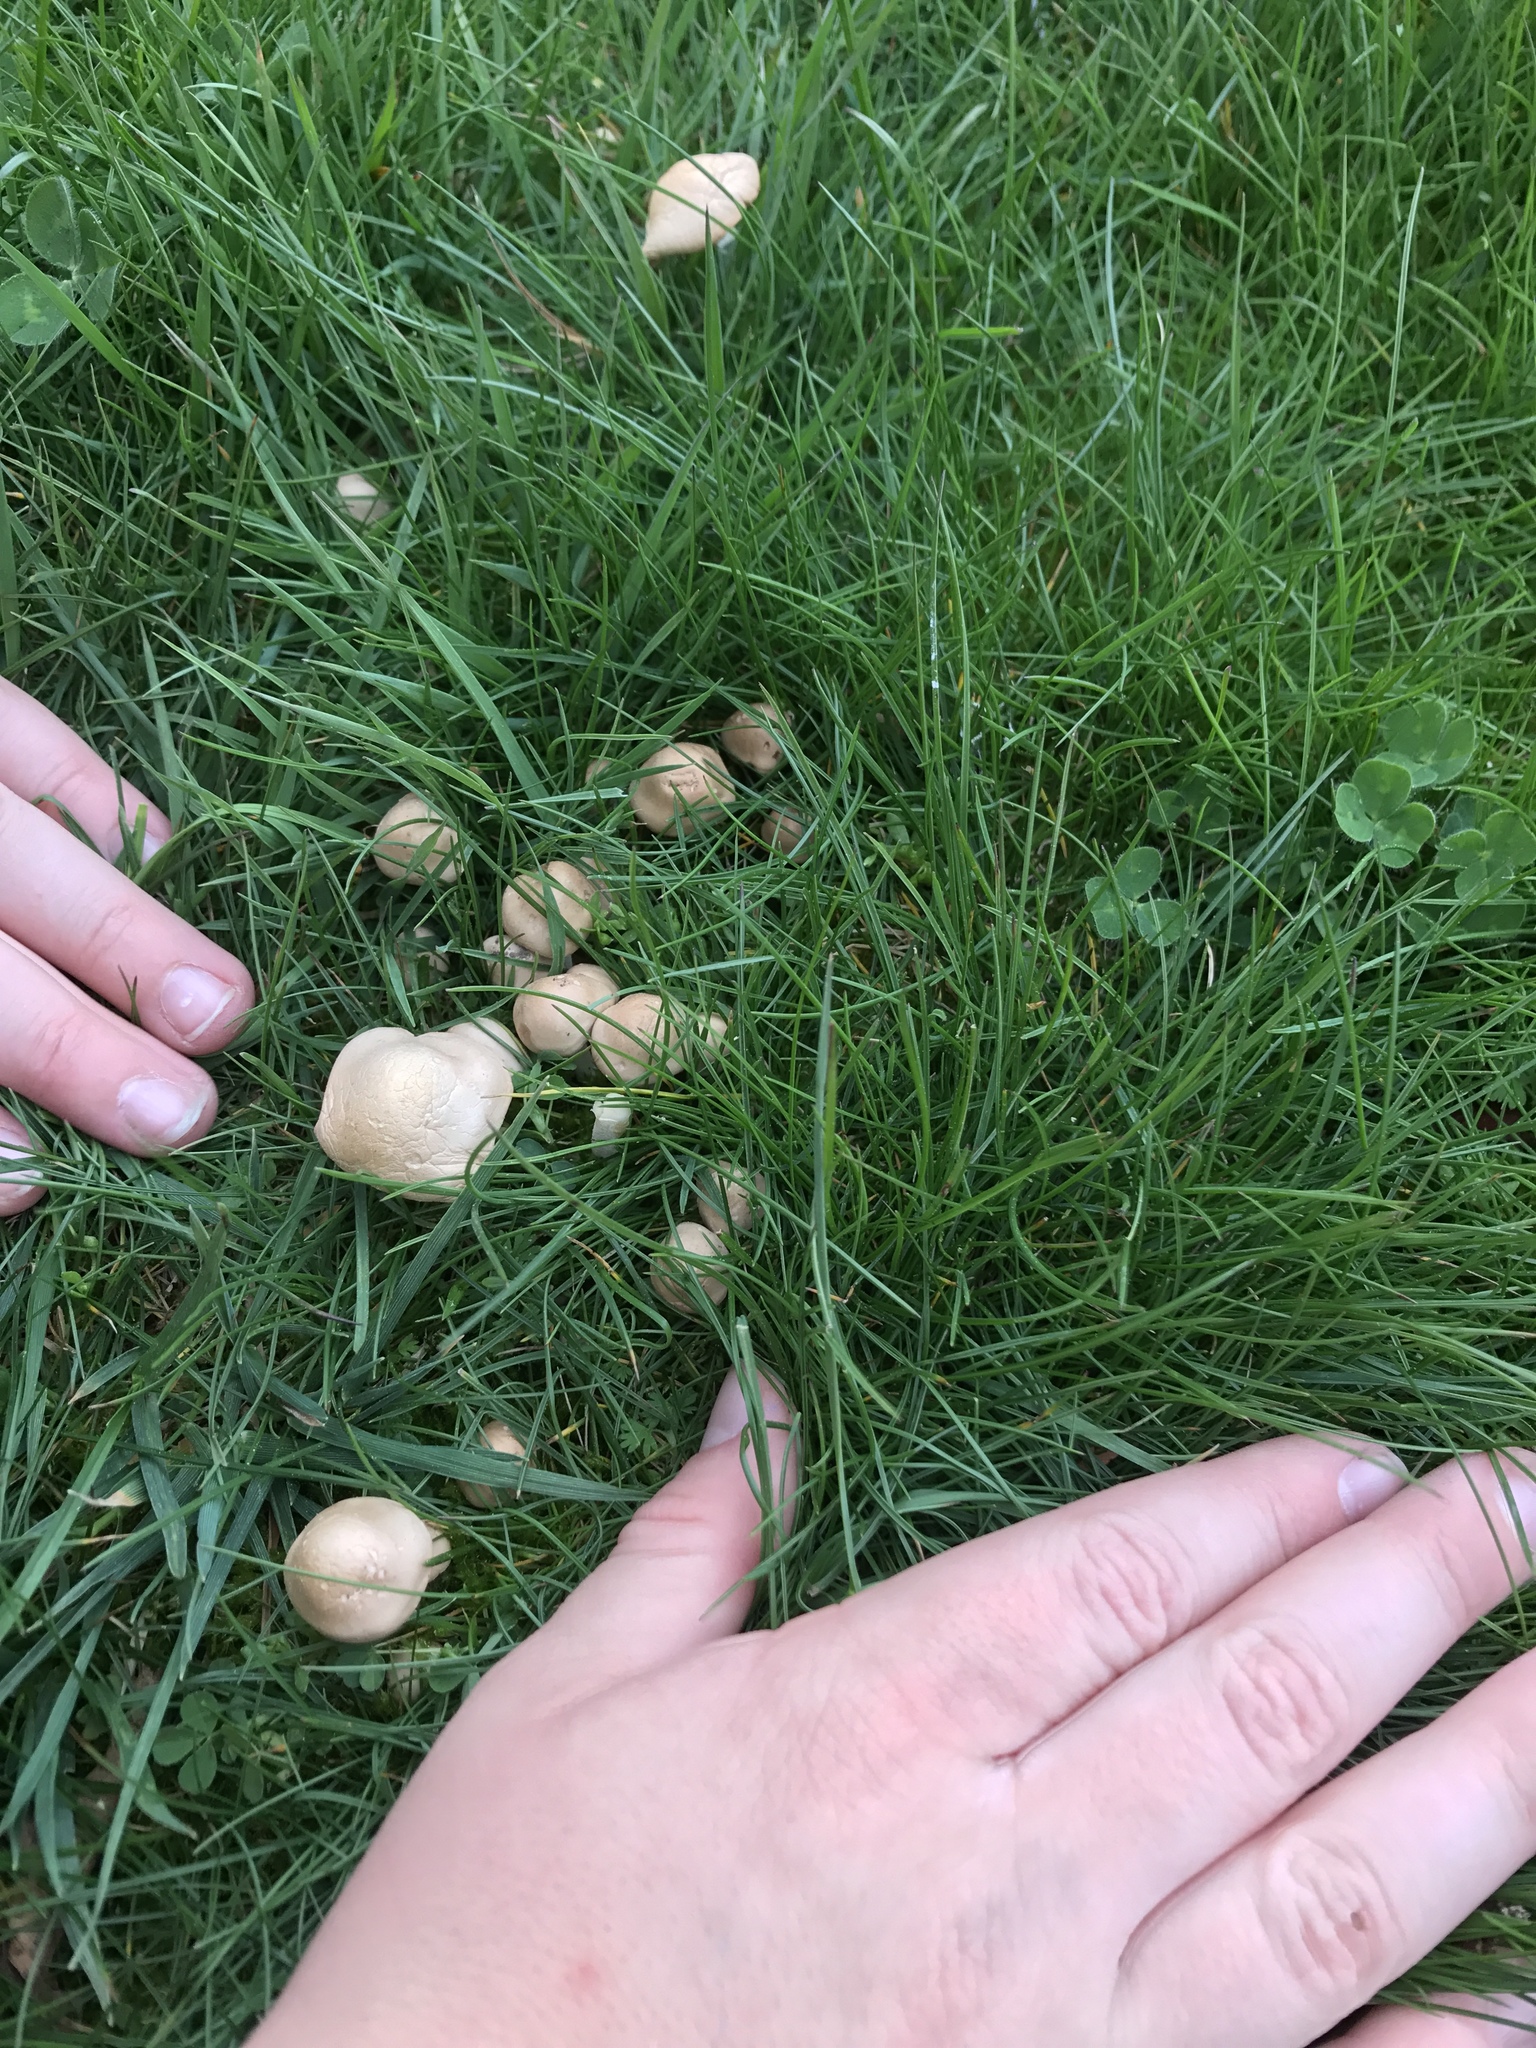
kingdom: Fungi
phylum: Basidiomycota
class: Agaricomycetes
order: Agaricales
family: Marasmiaceae
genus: Marasmius
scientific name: Marasmius oreades
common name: Fairy ring champignon
